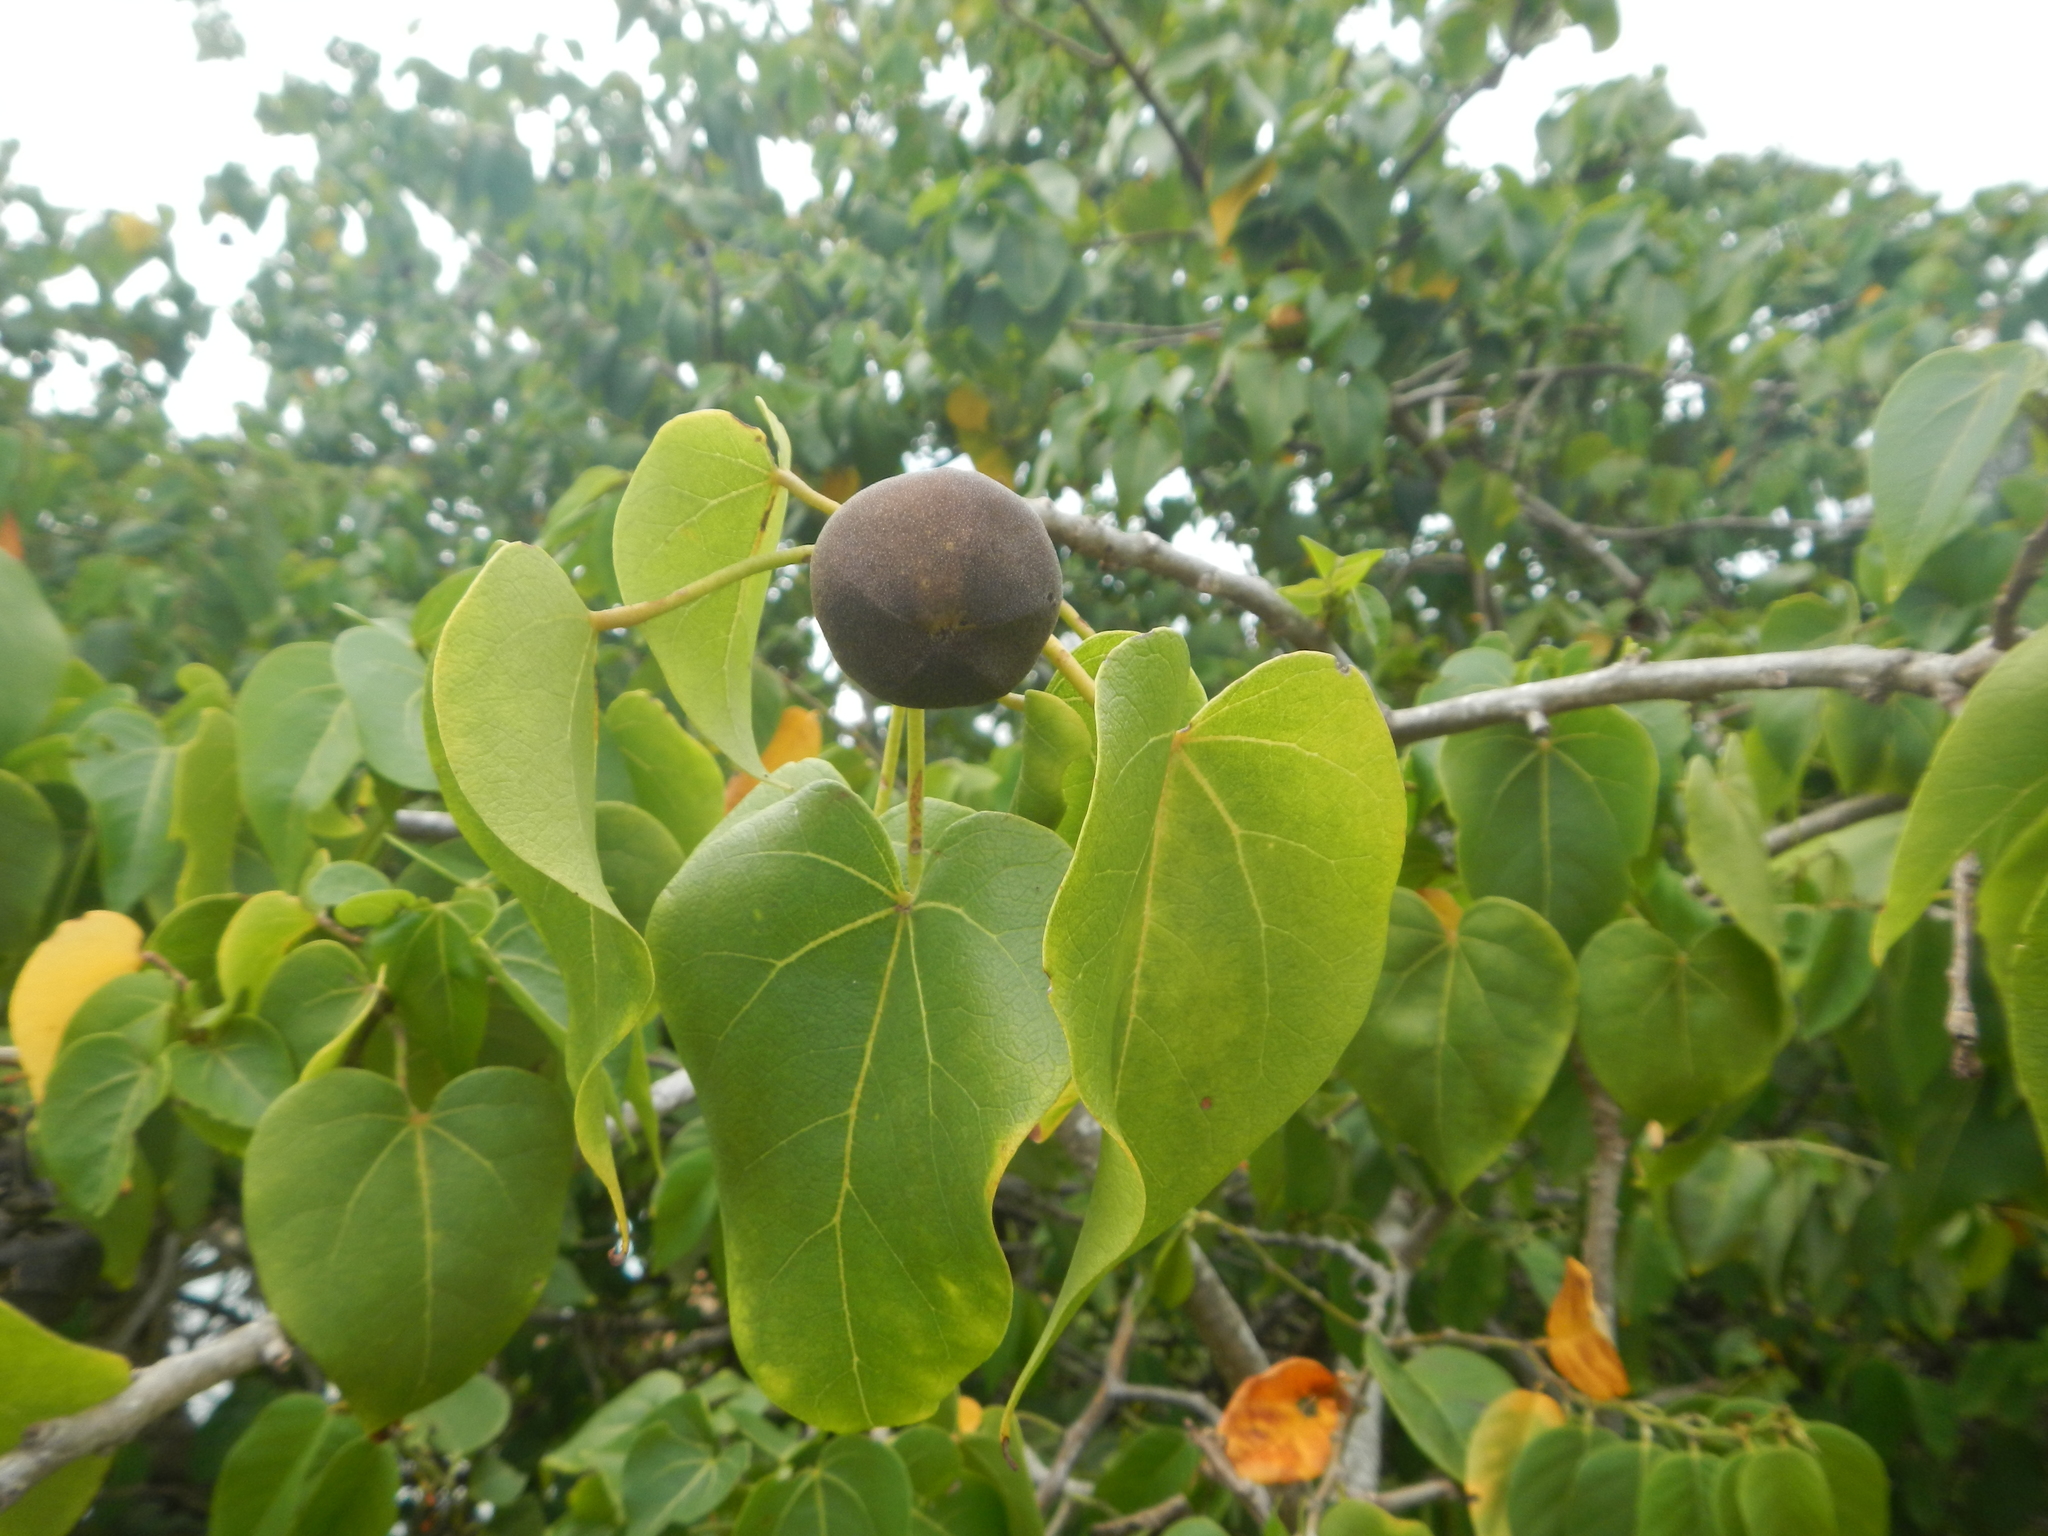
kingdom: Plantae
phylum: Tracheophyta
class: Magnoliopsida
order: Malvales
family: Malvaceae
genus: Thespesia
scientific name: Thespesia populnea
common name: Seaside mahoe
